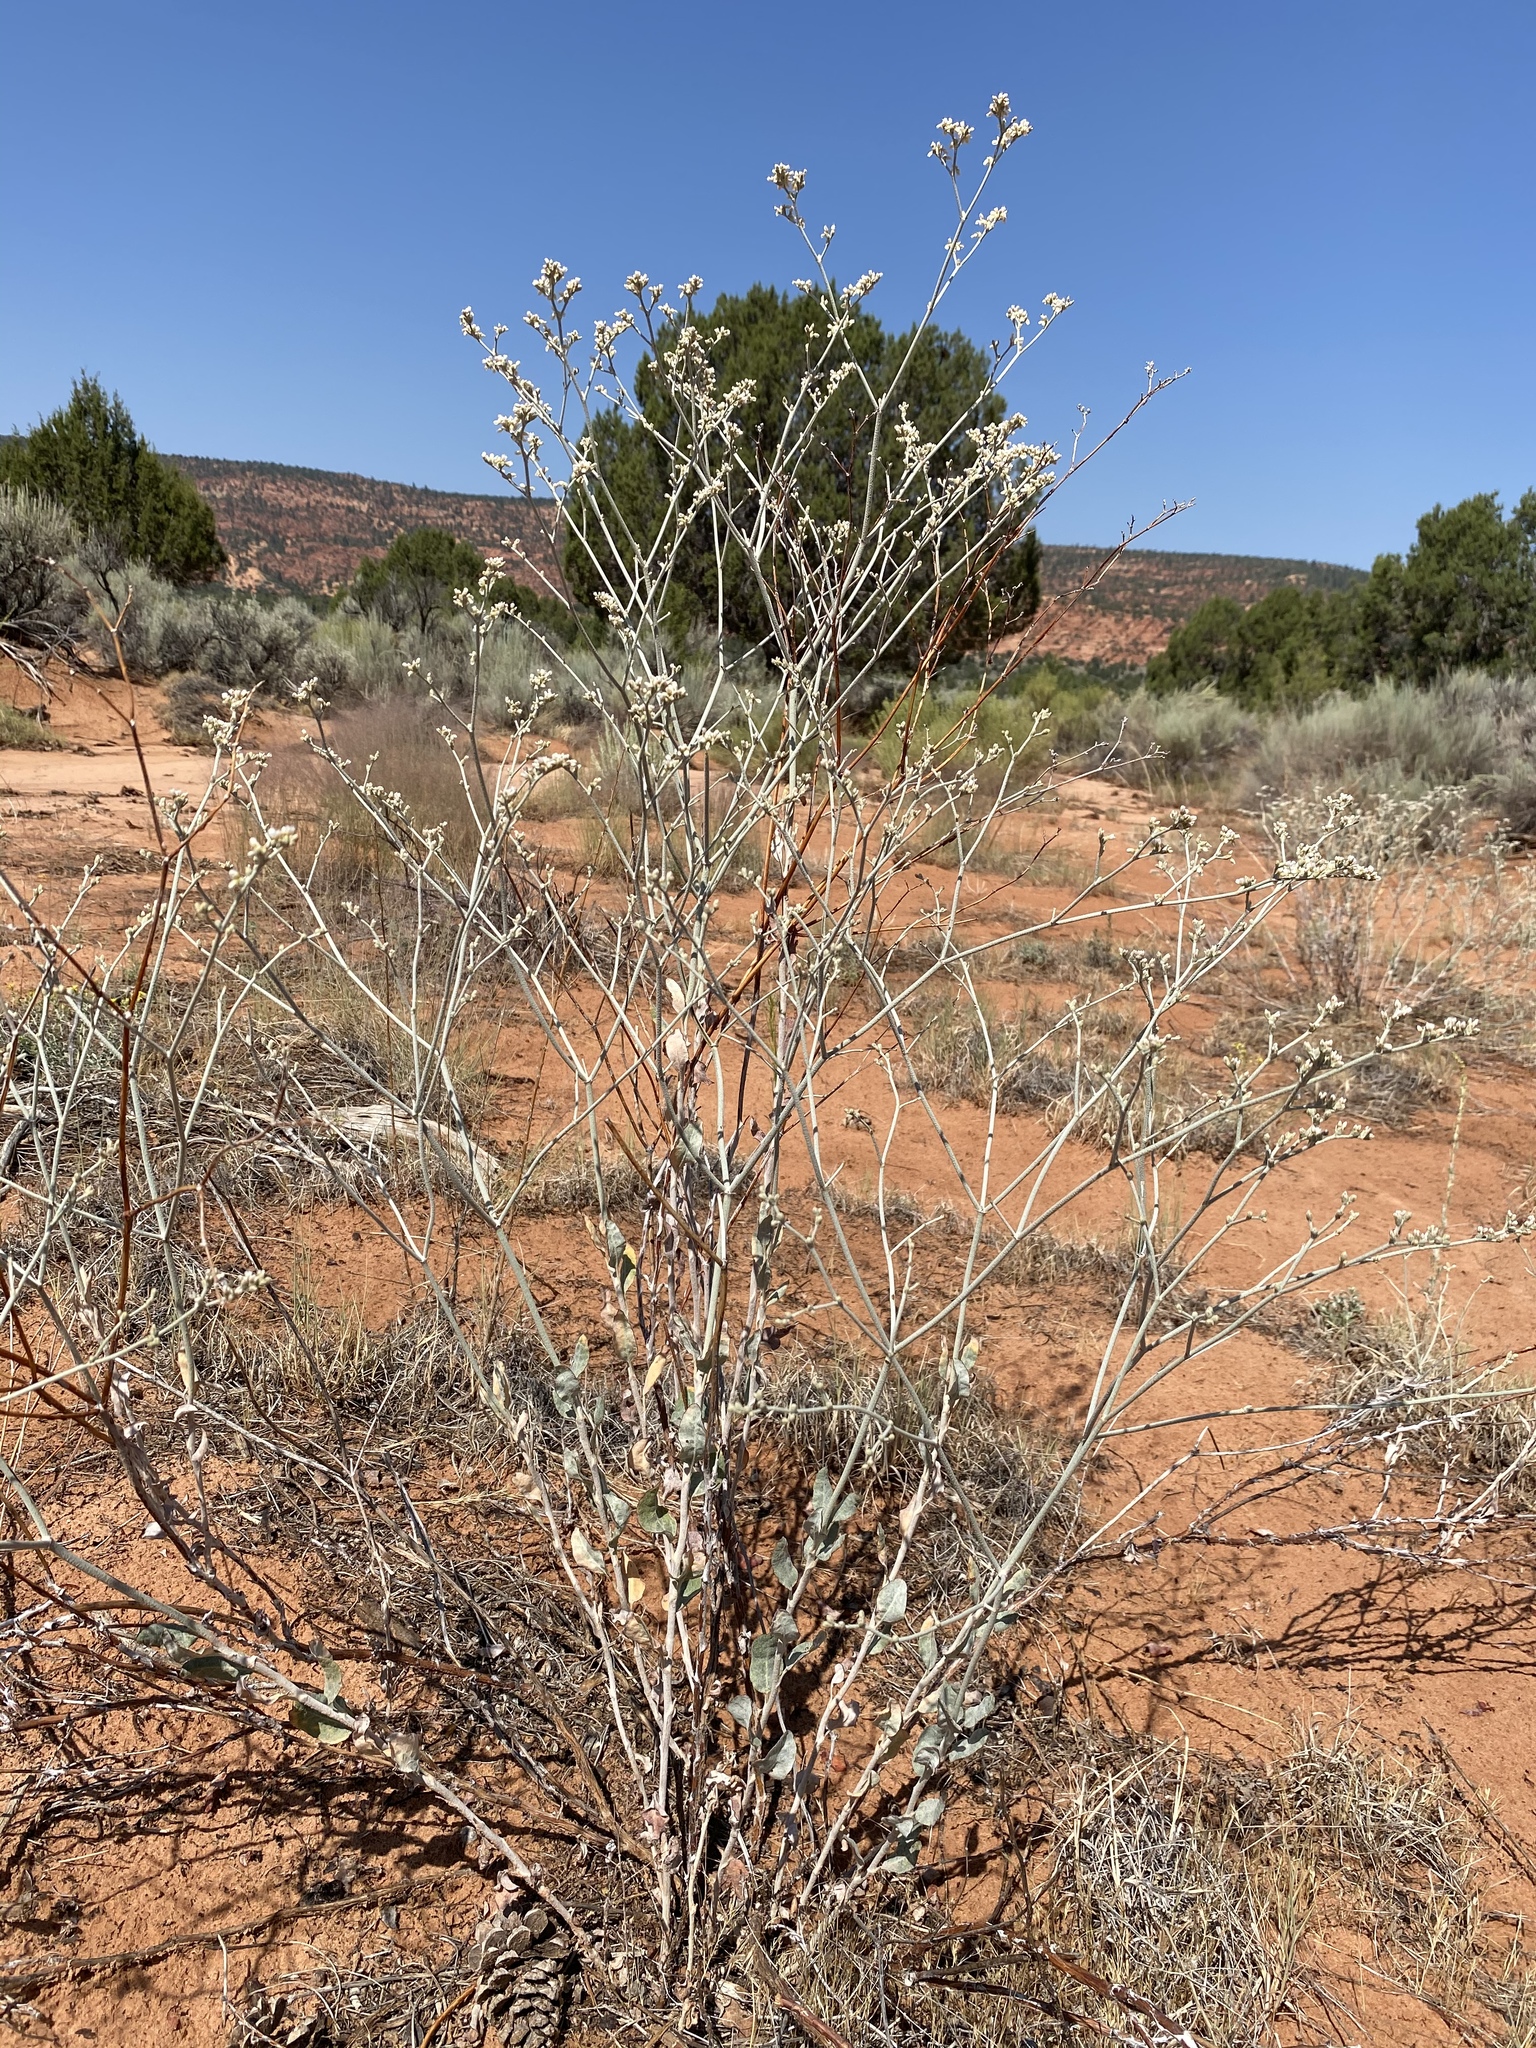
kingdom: Plantae
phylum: Tracheophyta
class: Magnoliopsida
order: Caryophyllales
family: Polygonaceae
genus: Eriogonum
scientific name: Eriogonum nummulare
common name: Kearney wild buckwheat
